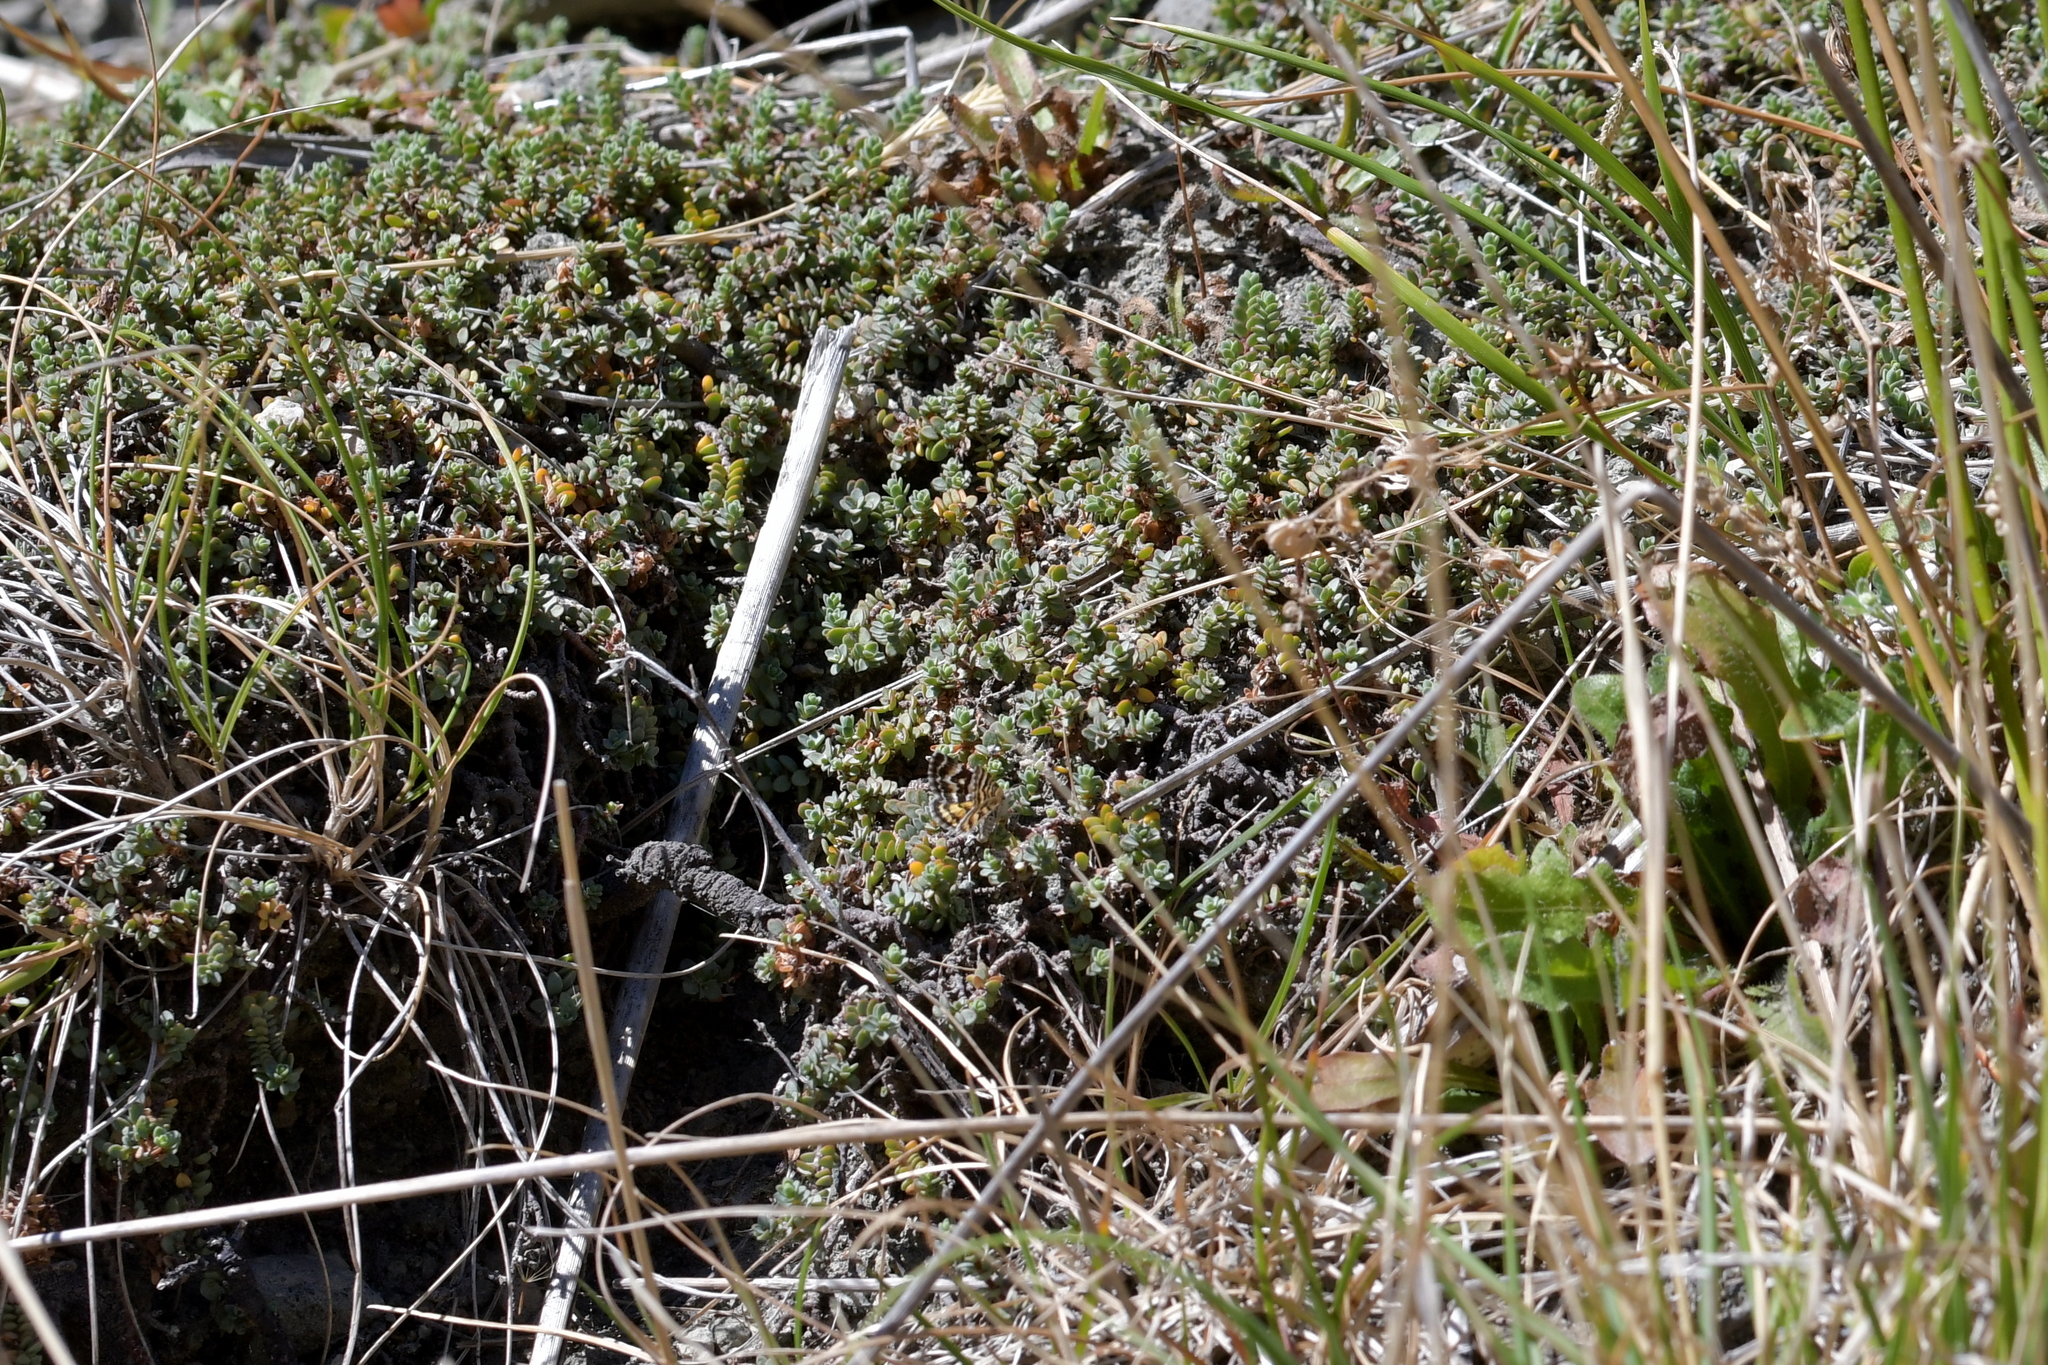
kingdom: Animalia
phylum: Arthropoda
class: Insecta
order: Lepidoptera
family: Geometridae
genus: Notoreas
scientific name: Notoreas perornata
